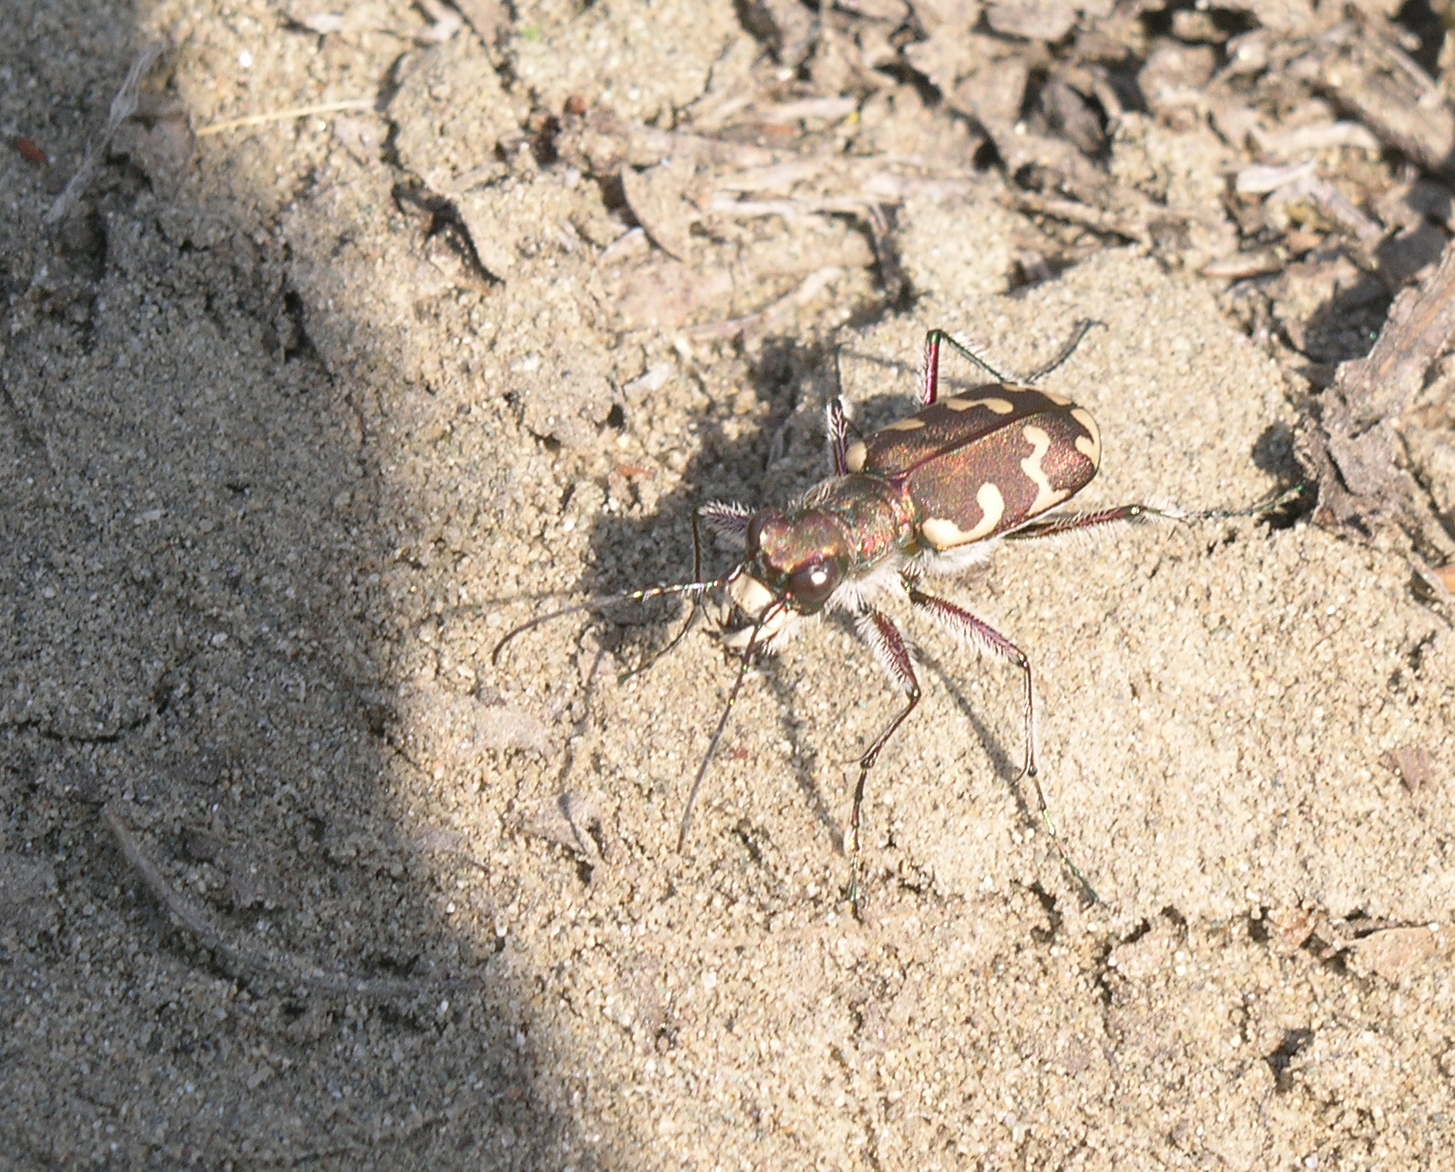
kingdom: Animalia
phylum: Arthropoda
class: Insecta
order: Coleoptera
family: Carabidae
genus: Cicindela
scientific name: Cicindela hybrida
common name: Northern dune tiger beetle
